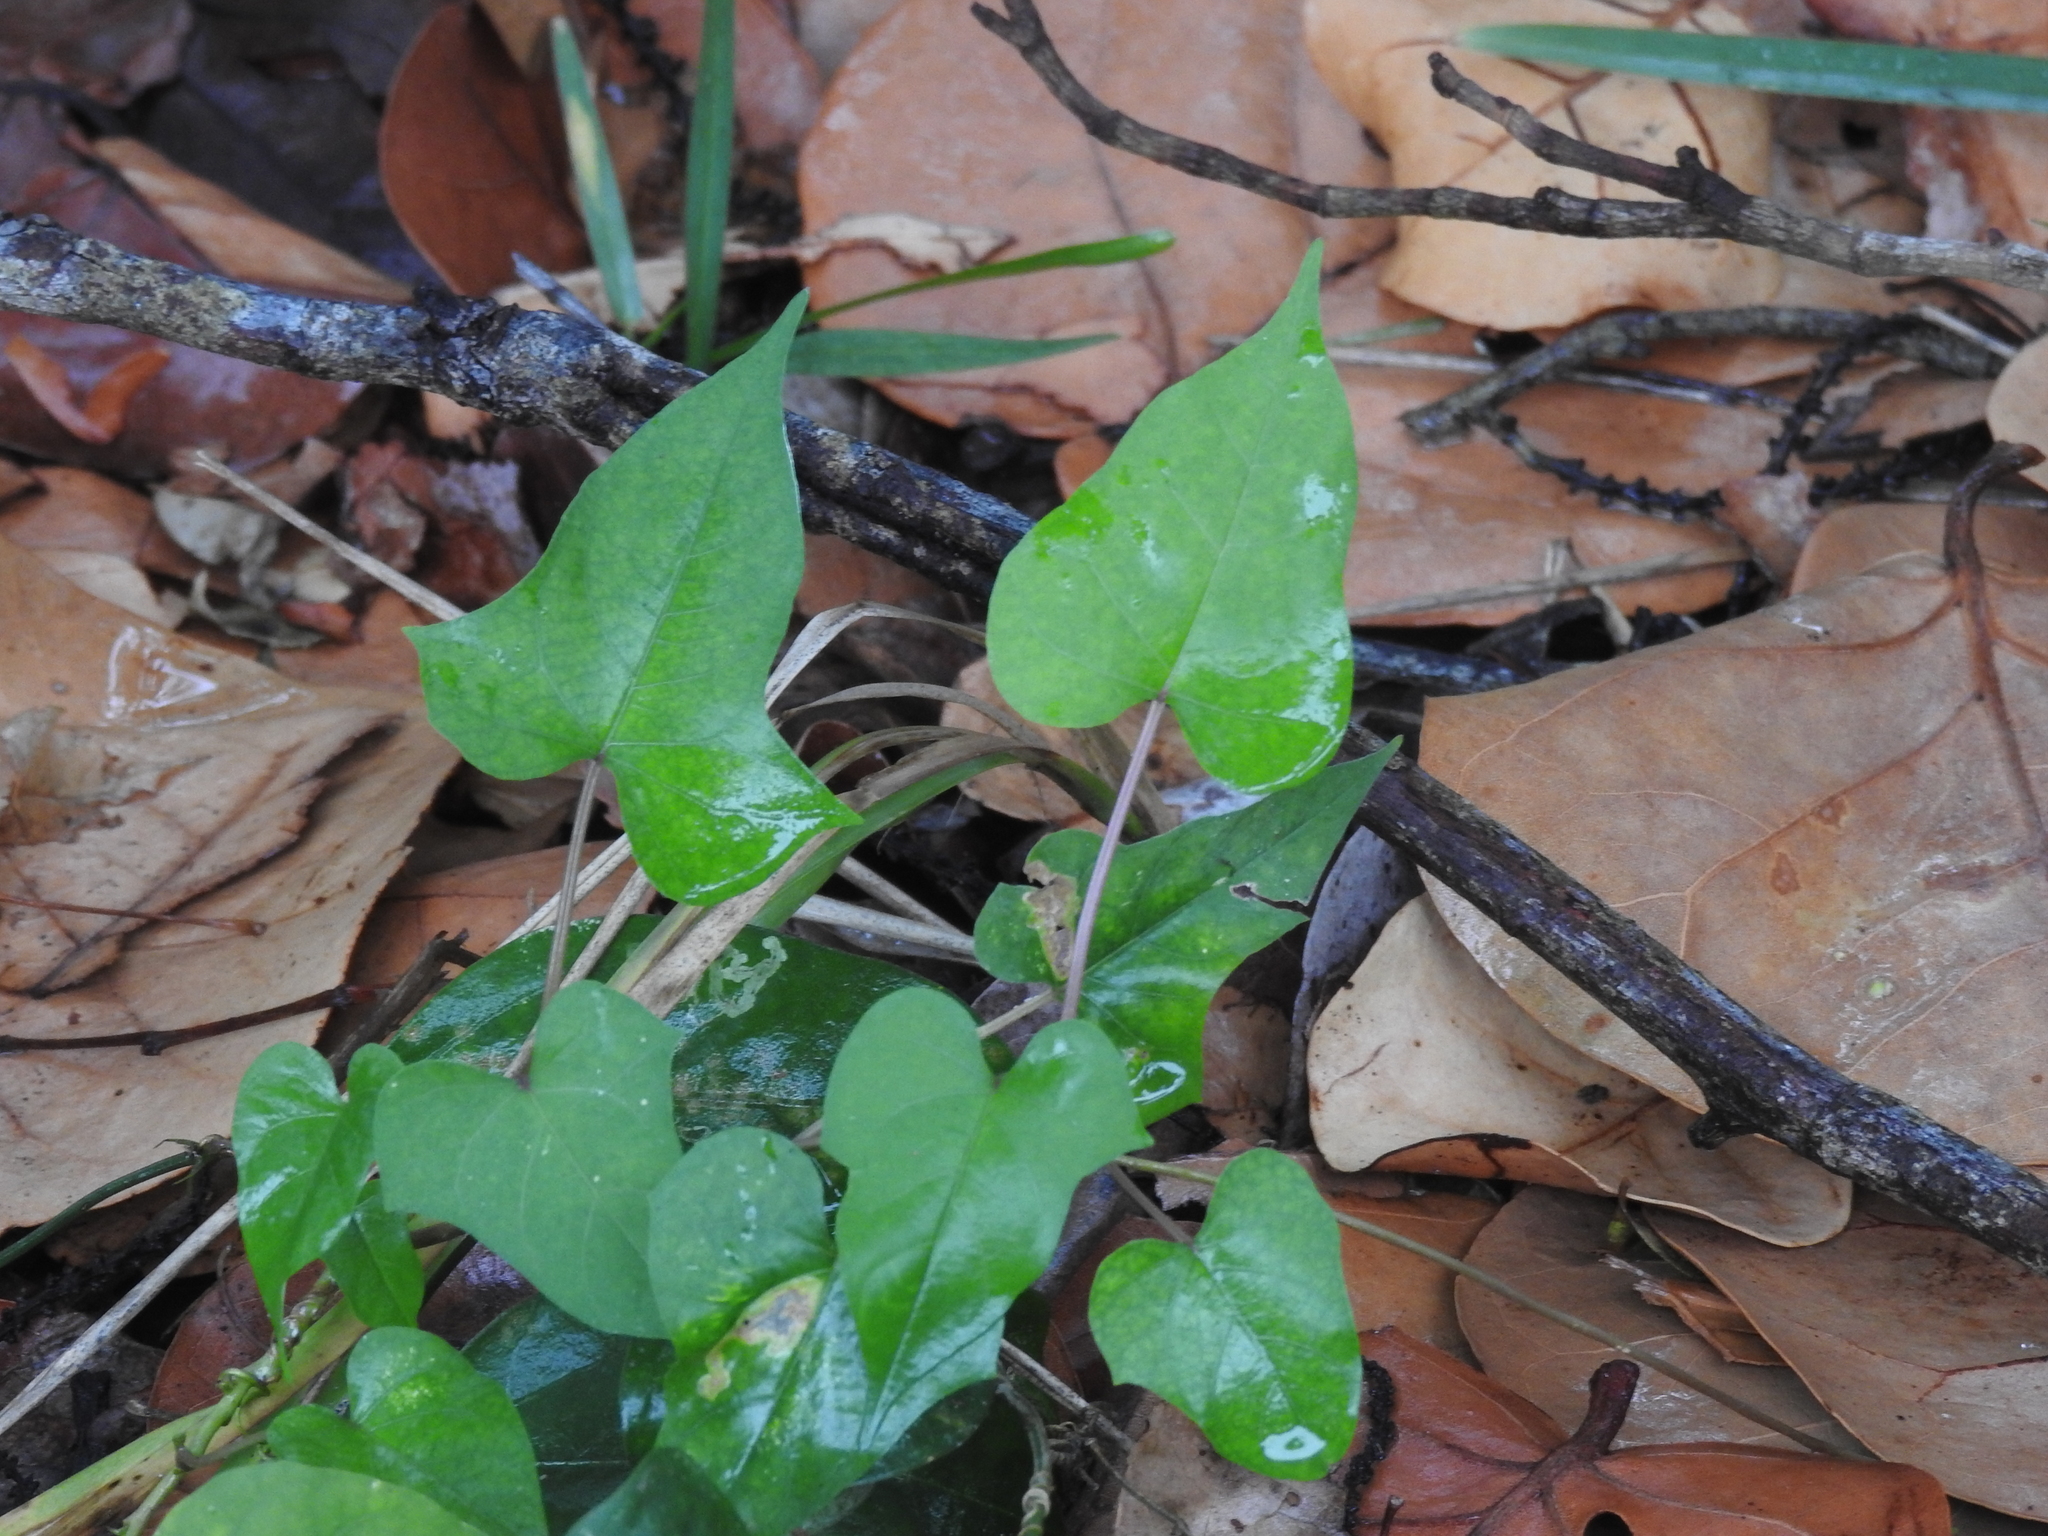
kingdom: Plantae
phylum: Tracheophyta
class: Magnoliopsida
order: Asterales
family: Asteraceae
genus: Mikania
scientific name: Mikania scandens
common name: Climbing hempvine
